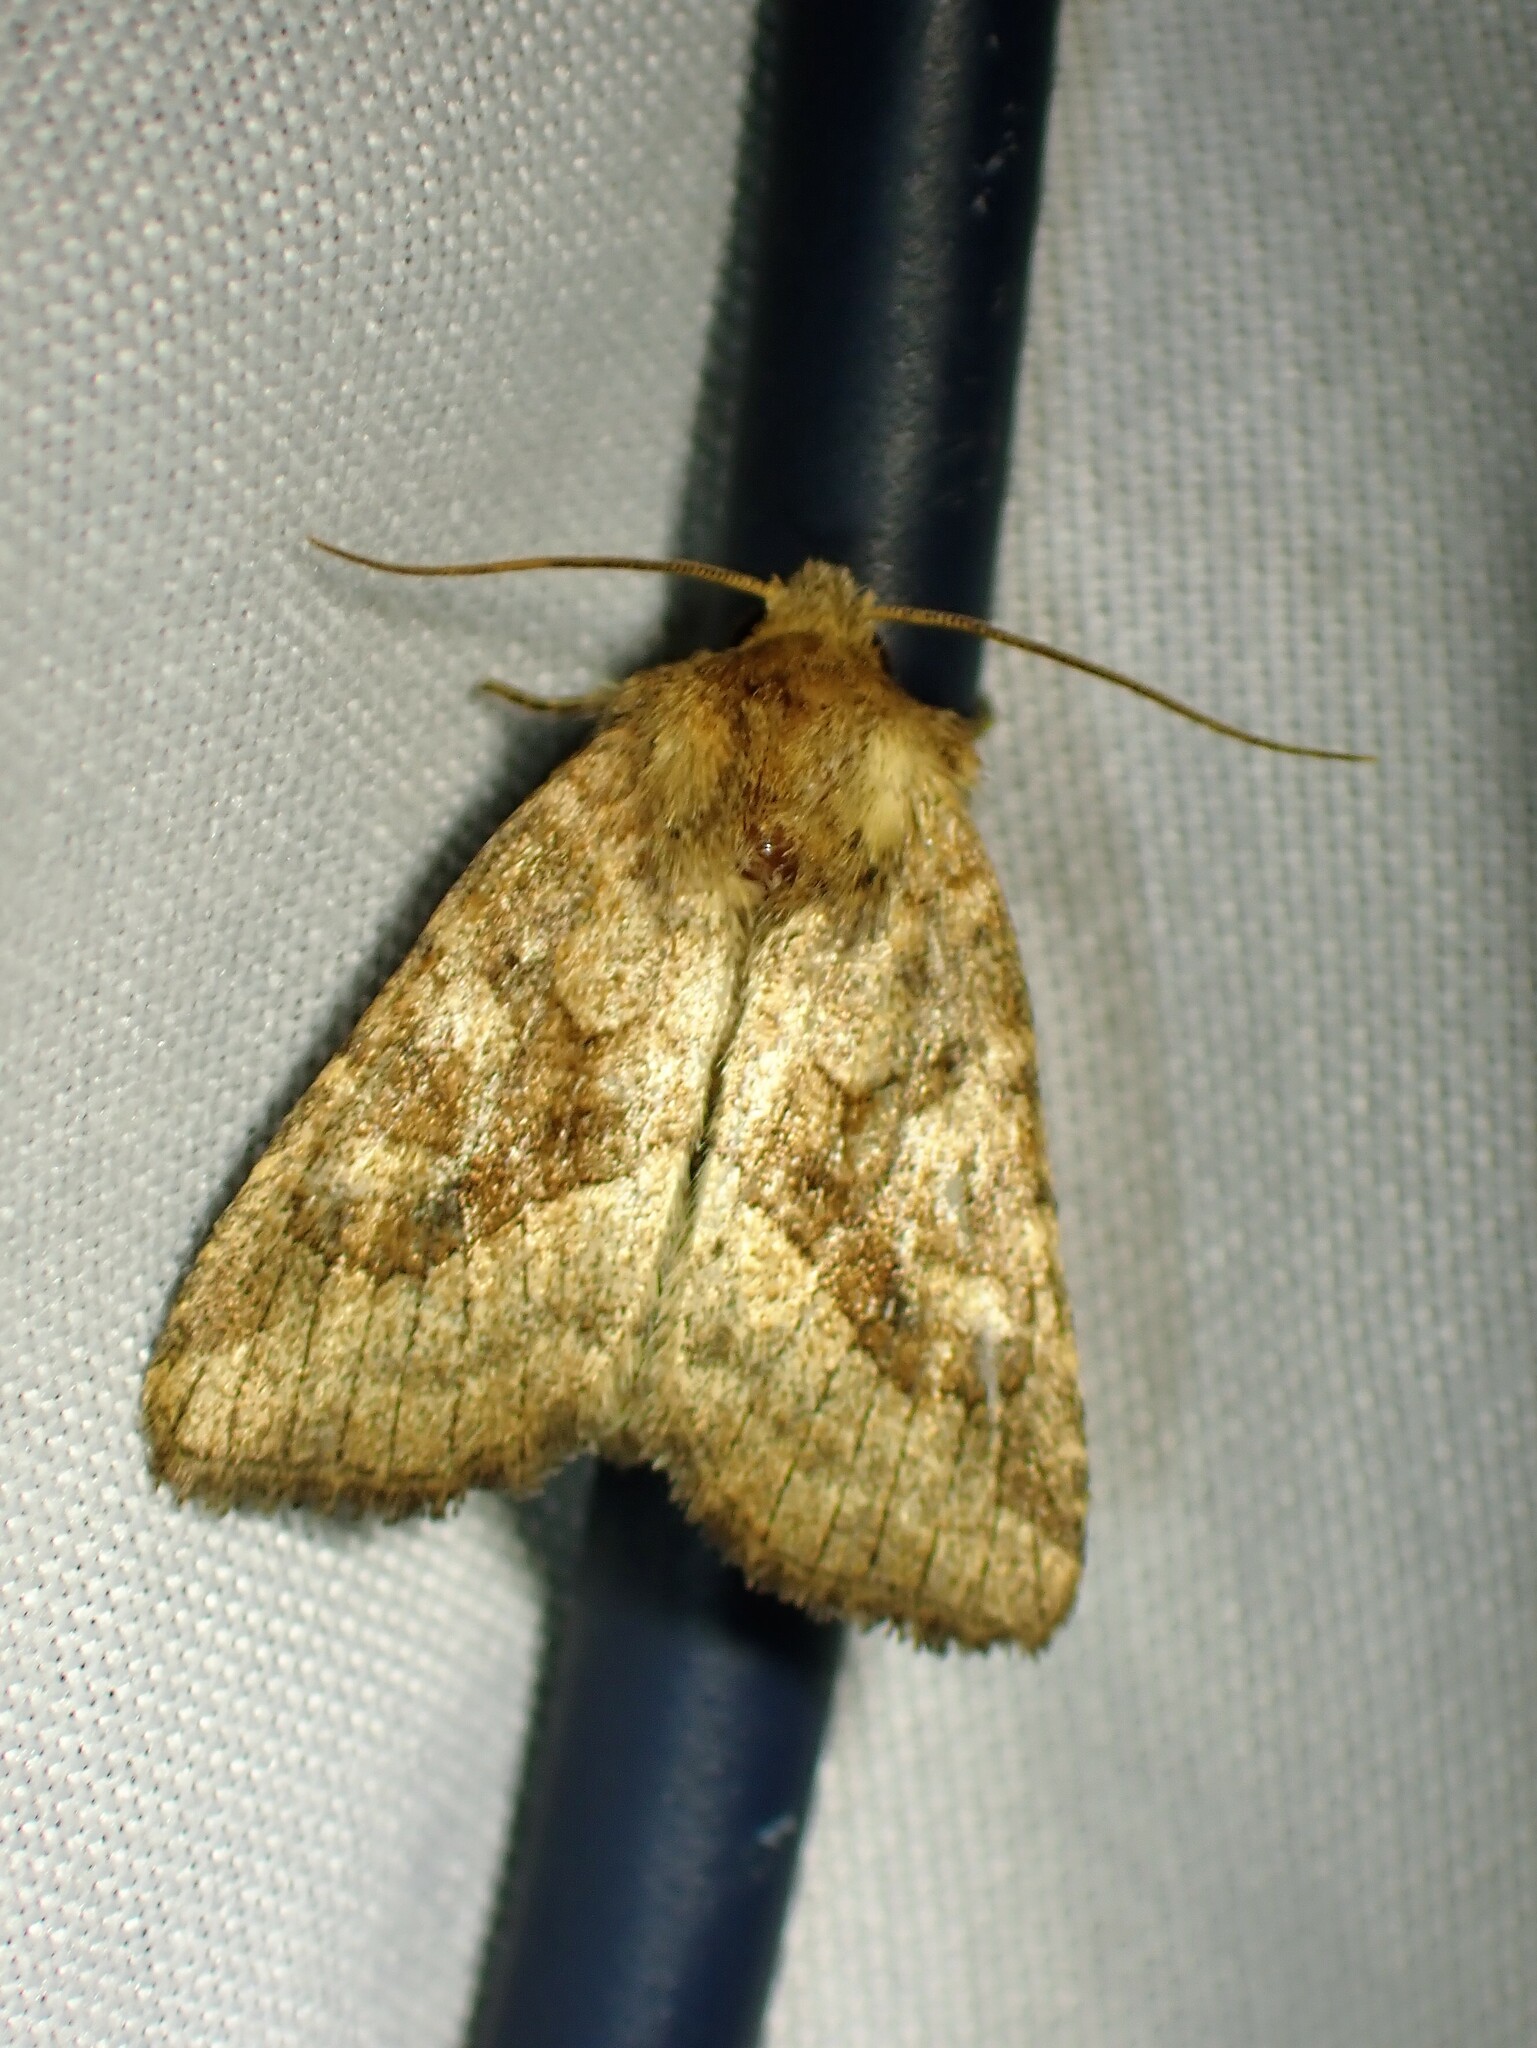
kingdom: Animalia
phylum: Arthropoda
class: Insecta
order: Lepidoptera
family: Noctuidae
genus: Lacinipolia
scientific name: Lacinipolia lorea
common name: Bridled arches moth
